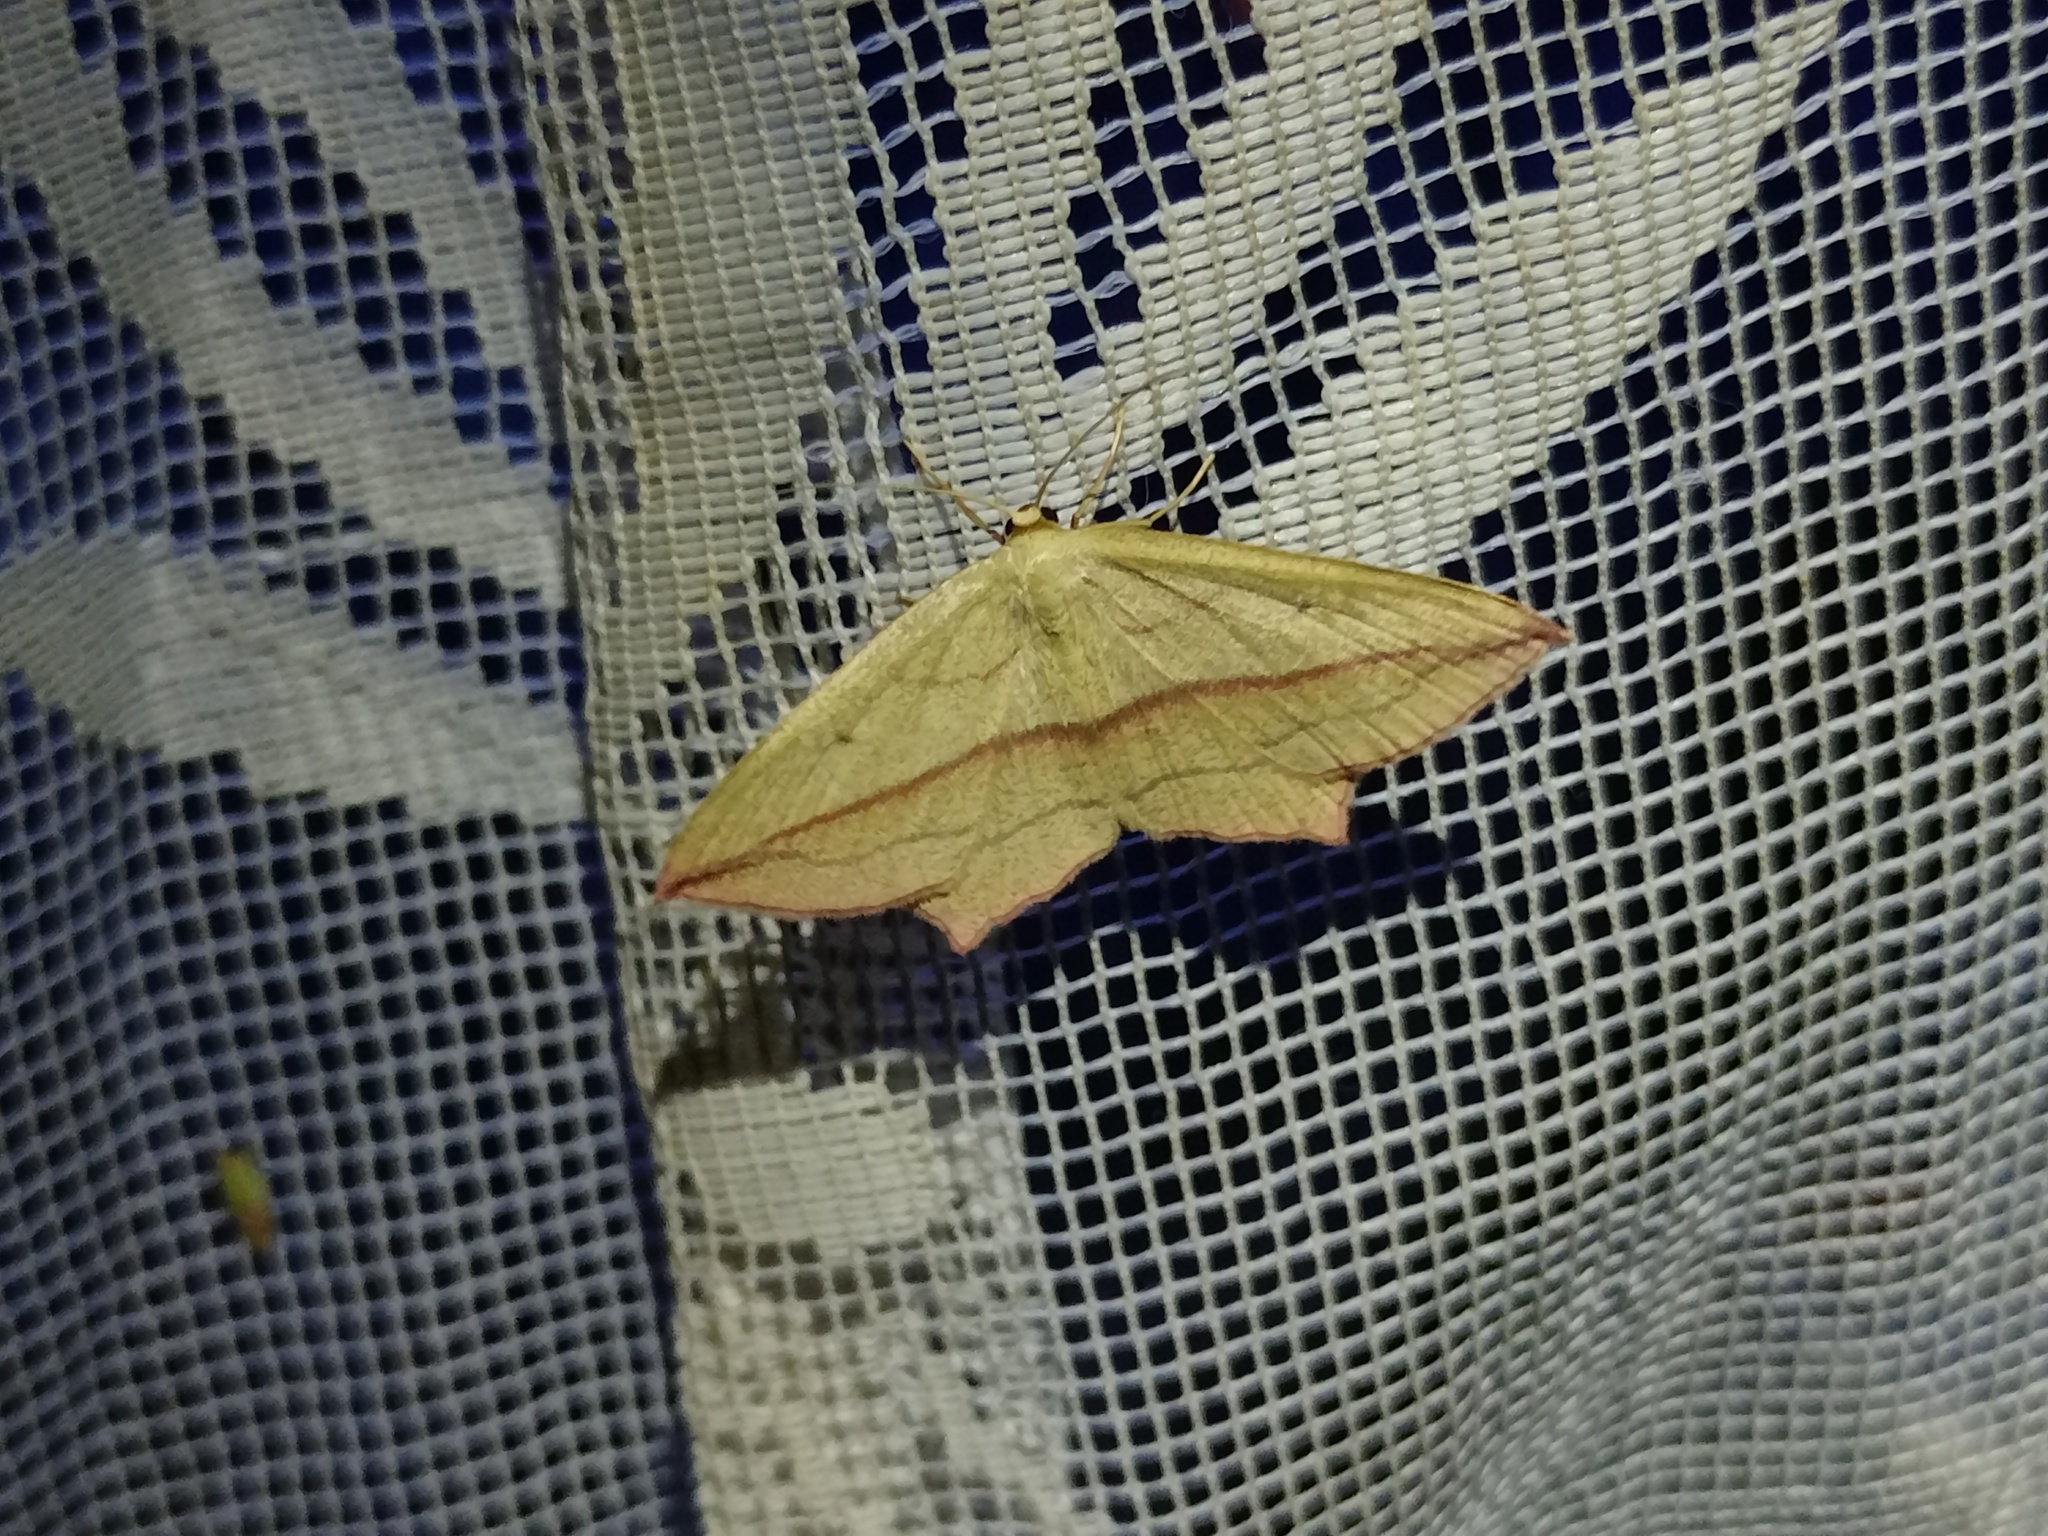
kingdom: Animalia
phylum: Arthropoda
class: Insecta
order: Lepidoptera
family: Geometridae
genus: Timandra
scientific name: Timandra comae
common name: Blood-vein
